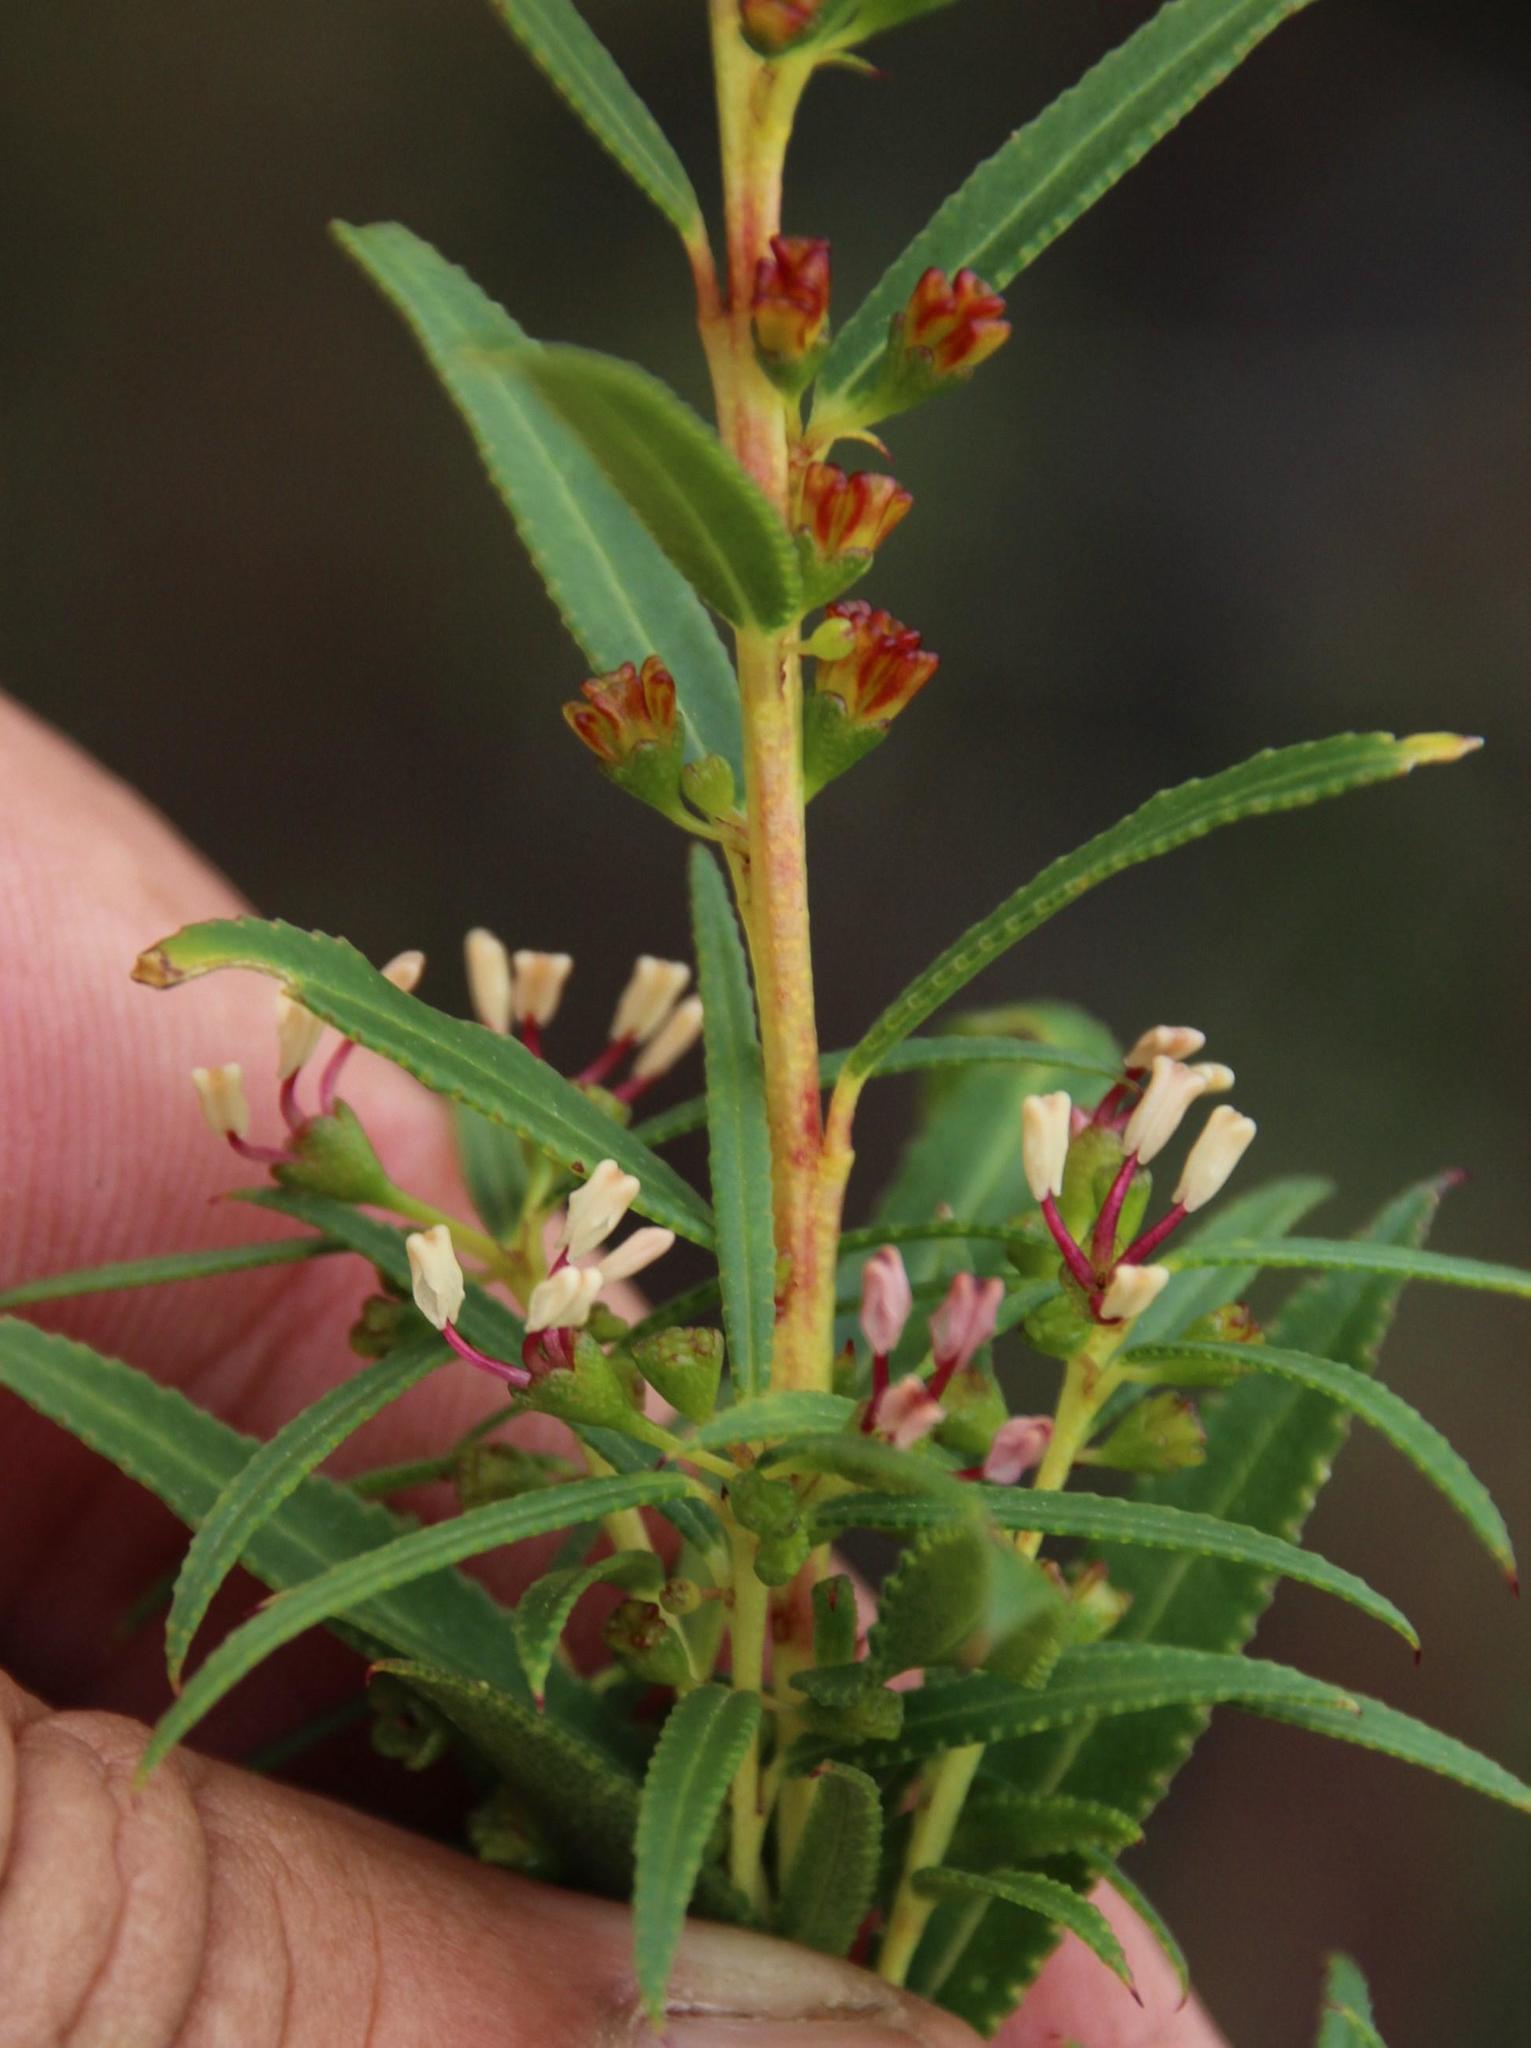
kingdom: Plantae
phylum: Tracheophyta
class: Magnoliopsida
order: Sapindales
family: Rutaceae
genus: Empleurum
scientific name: Empleurum unicapsulare
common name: False buchu
